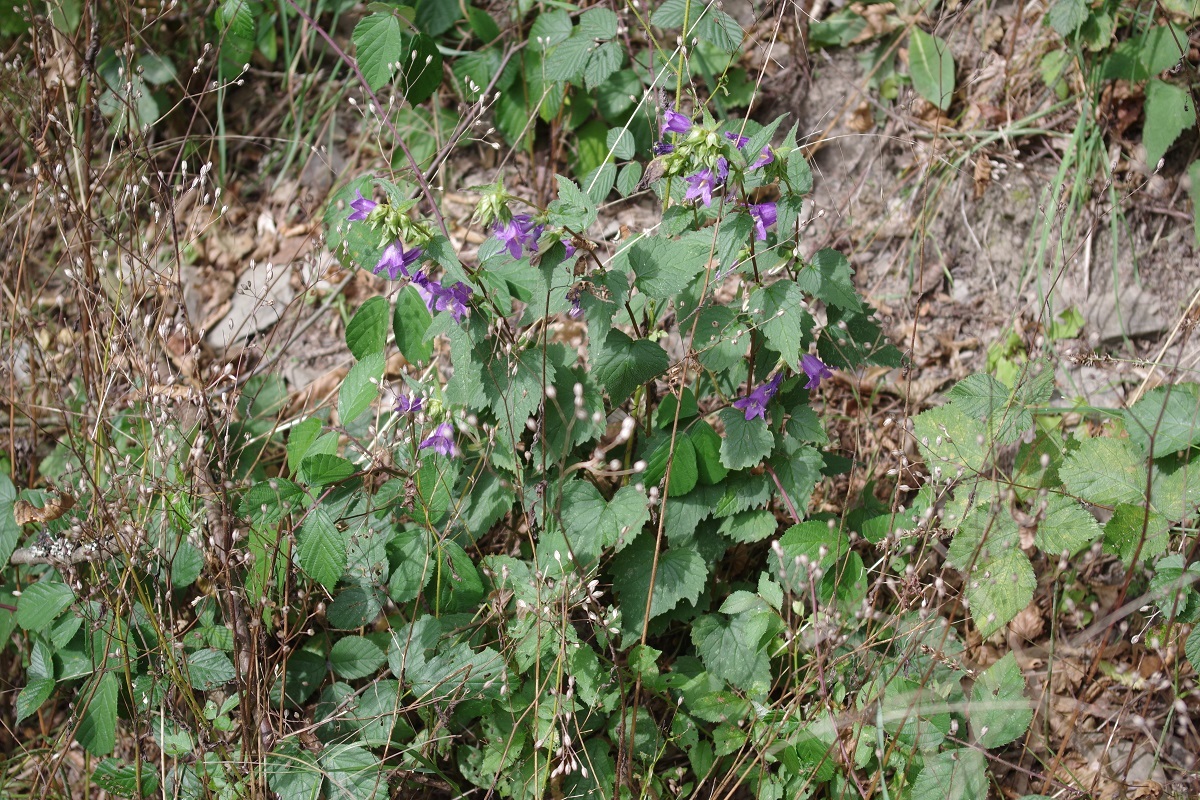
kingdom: Plantae
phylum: Tracheophyta
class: Magnoliopsida
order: Asterales
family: Campanulaceae
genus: Campanula
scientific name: Campanula trachelium
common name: Nettle-leaved bellflower
